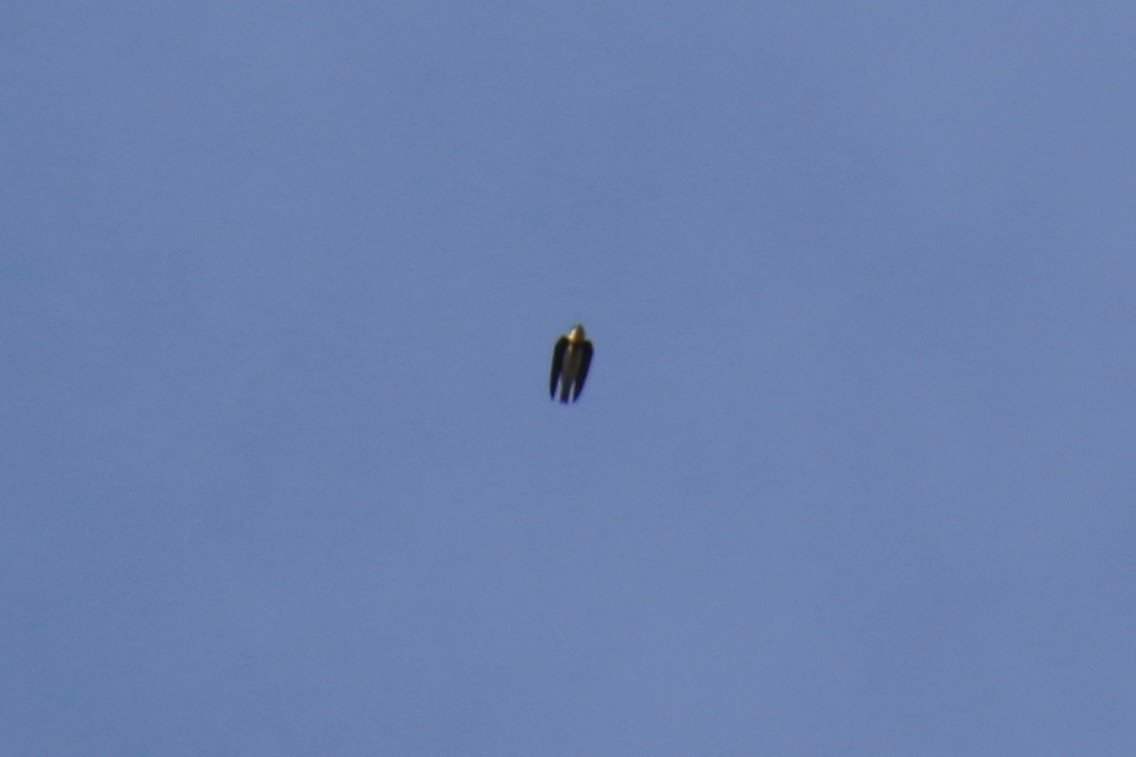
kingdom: Animalia
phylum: Chordata
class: Aves
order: Passeriformes
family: Hirundinidae
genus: Riparia
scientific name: Riparia riparia
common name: Sand martin
